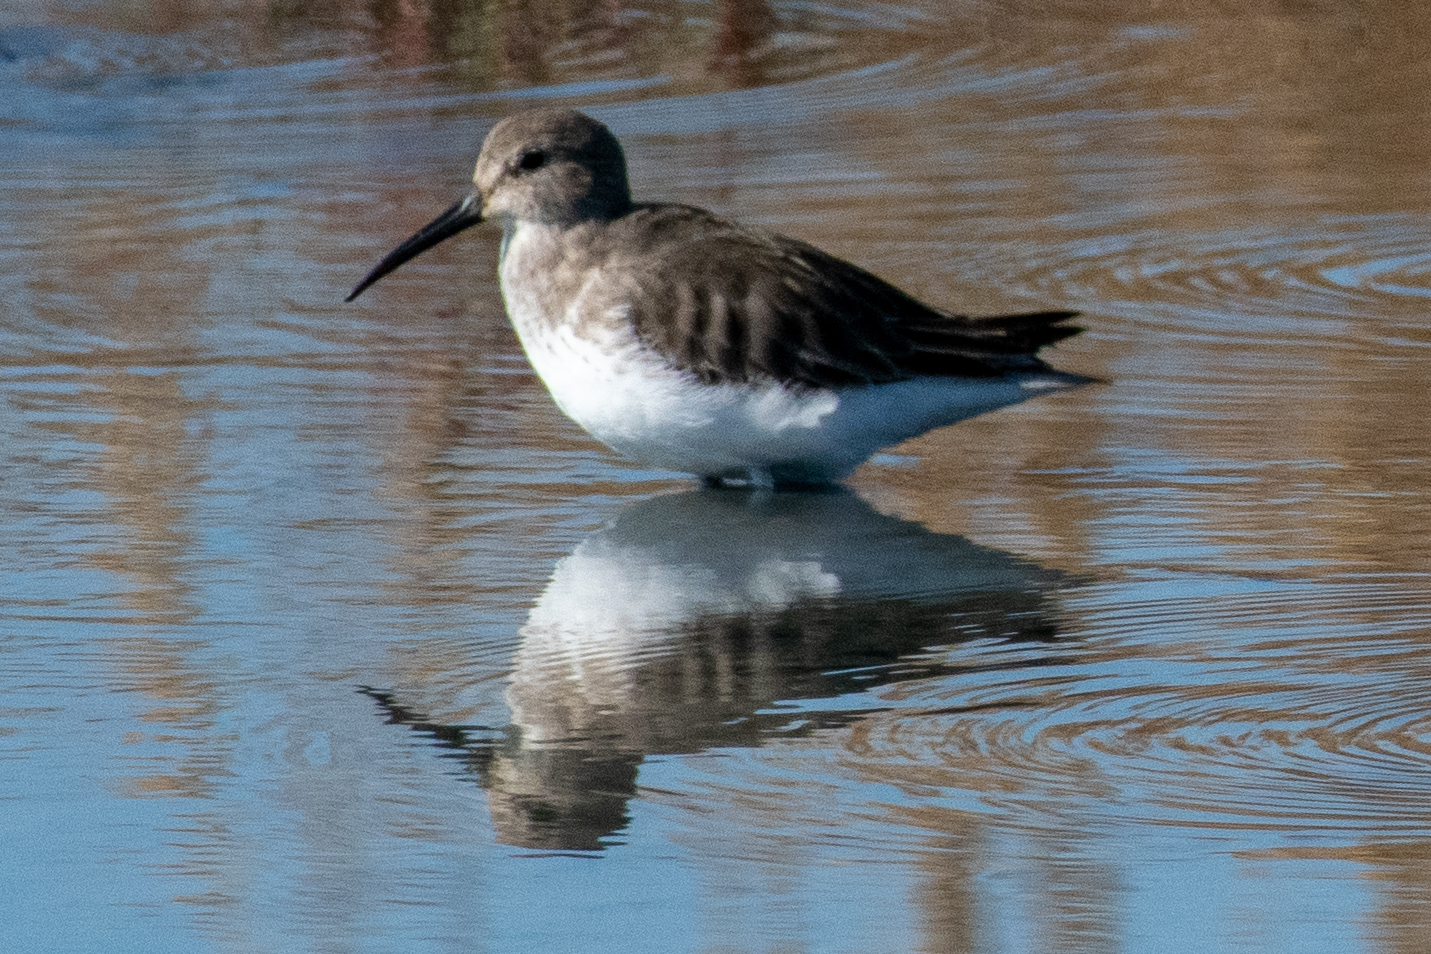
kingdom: Animalia
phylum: Chordata
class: Aves
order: Charadriiformes
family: Scolopacidae
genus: Calidris
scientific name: Calidris alpina
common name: Dunlin
